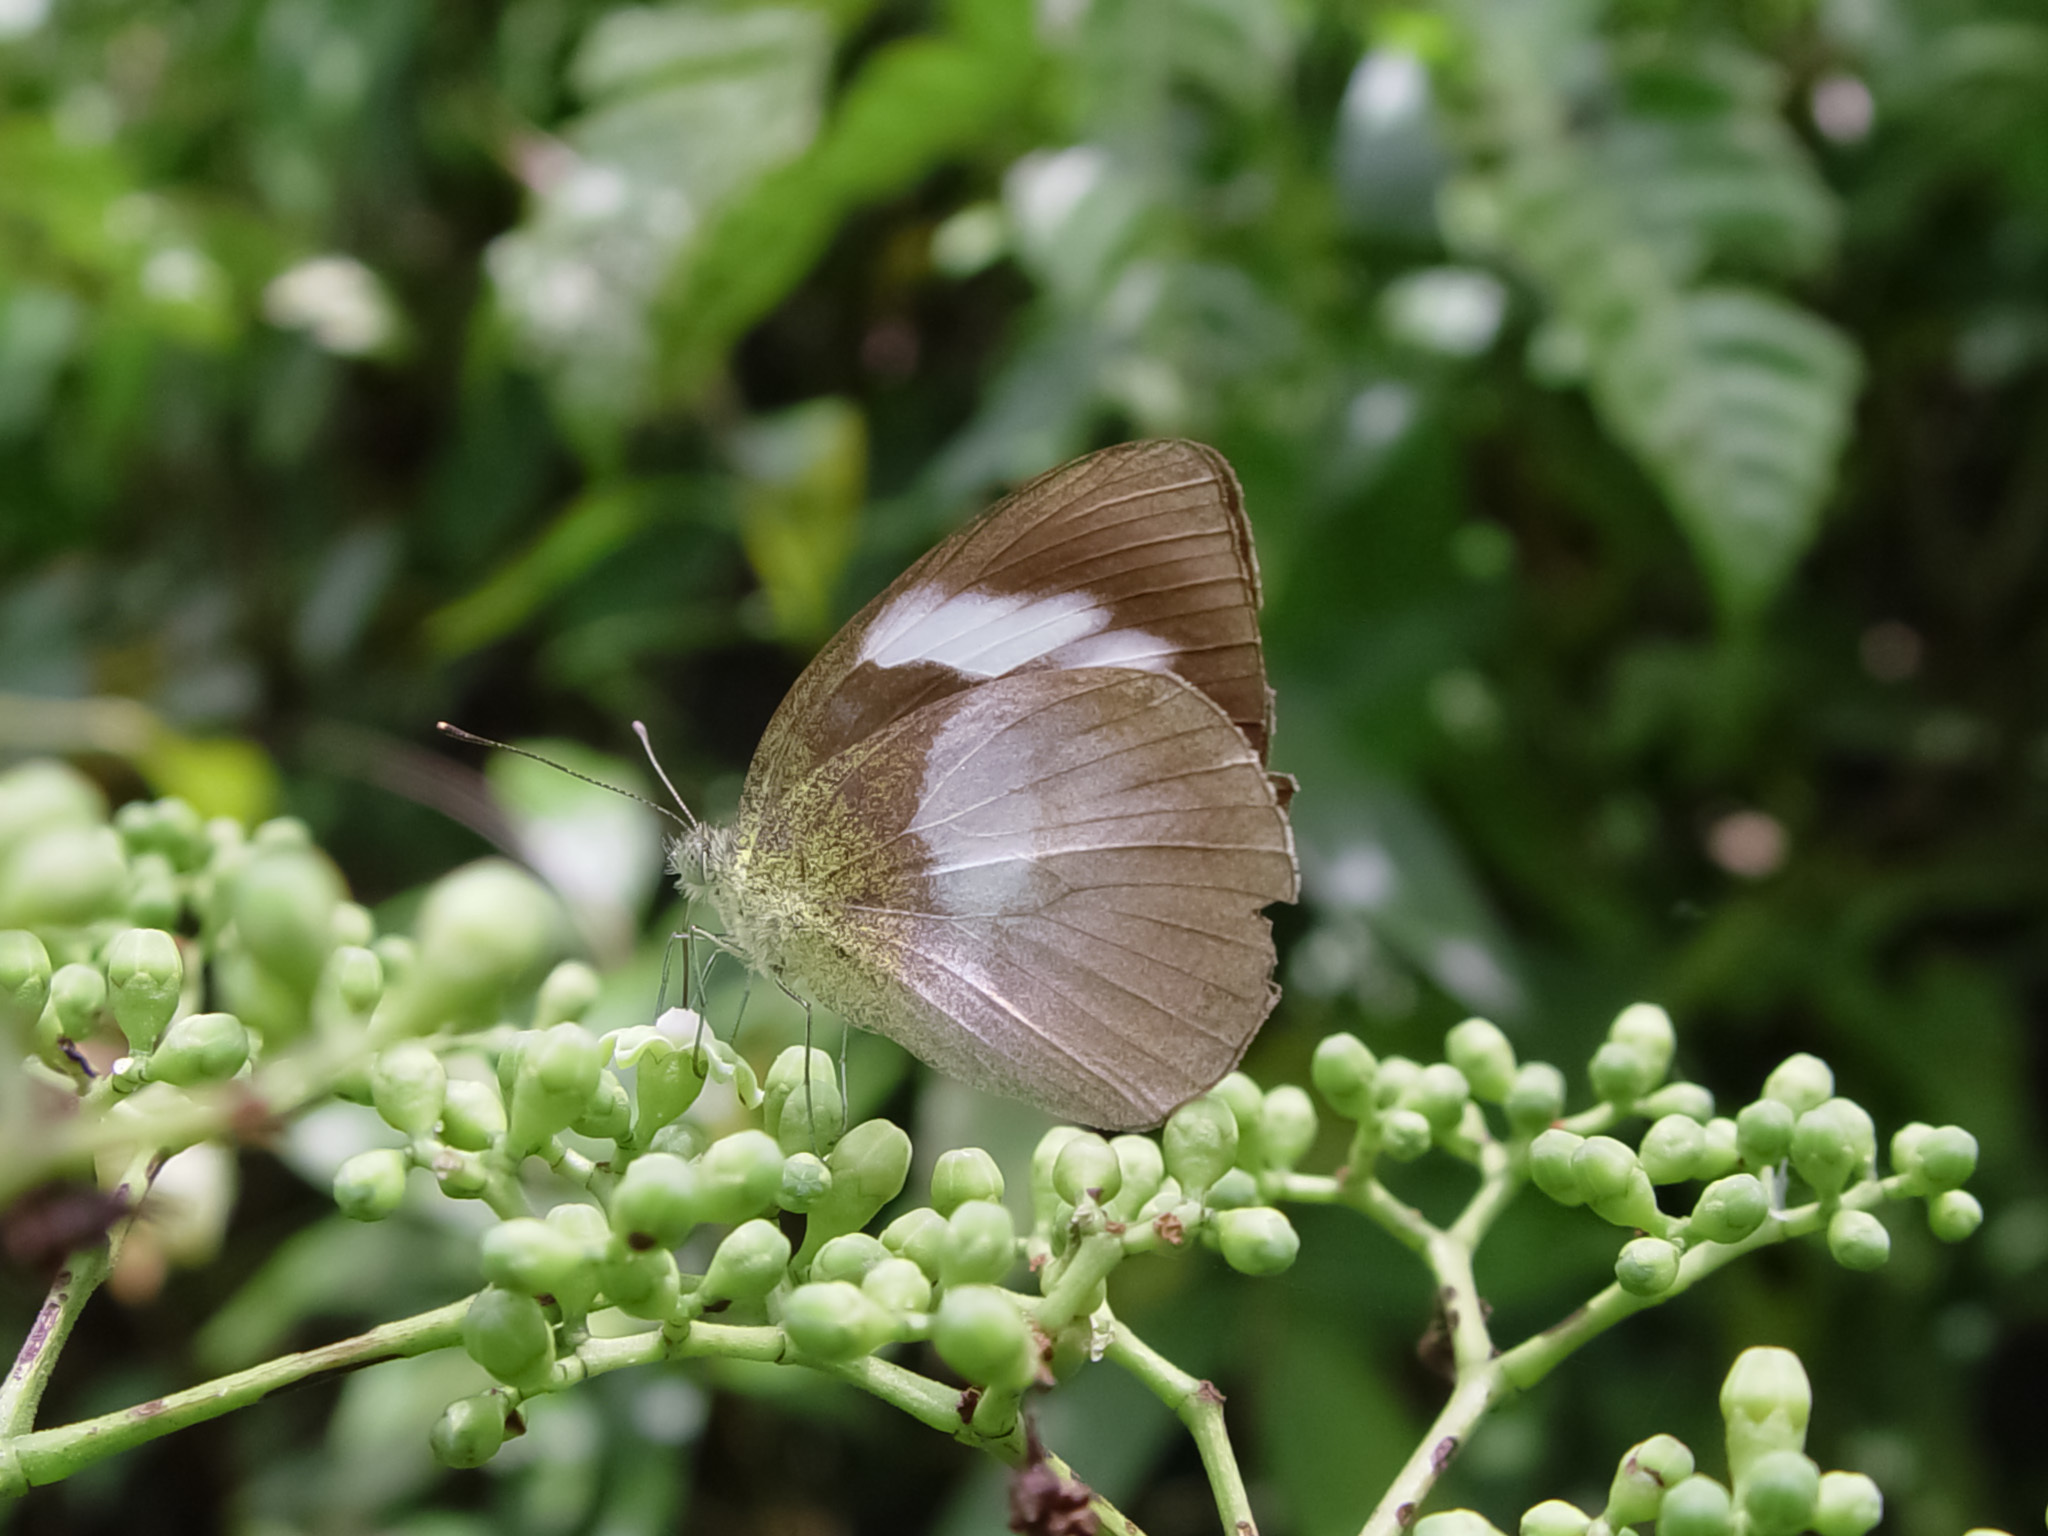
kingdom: Animalia
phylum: Arthropoda
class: Insecta
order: Lepidoptera
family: Pieridae
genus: Phrissura
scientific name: Phrissura
